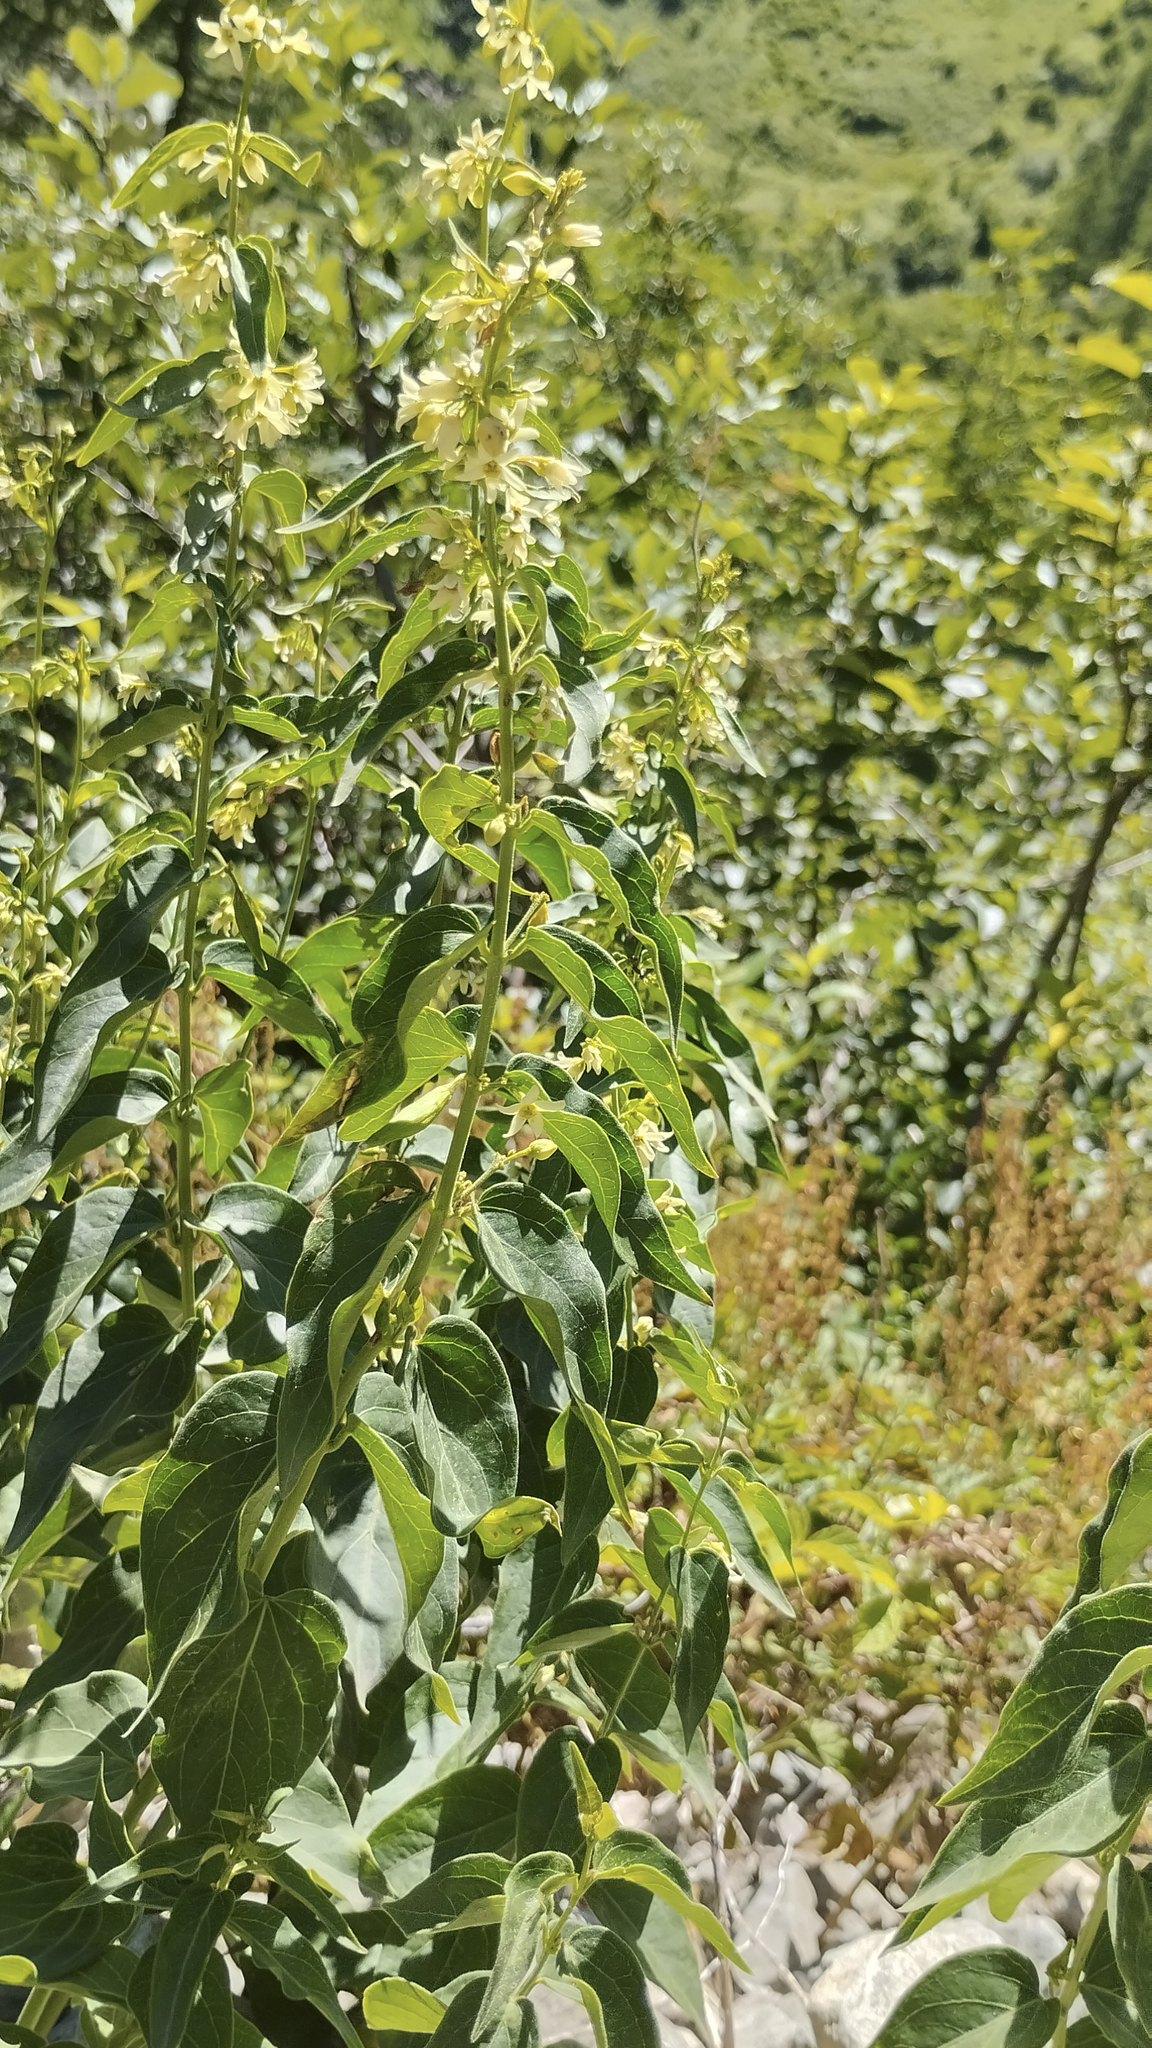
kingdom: Plantae
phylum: Tracheophyta
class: Magnoliopsida
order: Gentianales
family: Apocynaceae
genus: Vincetoxicum
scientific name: Vincetoxicum hirundinaria
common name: White swallowwort
